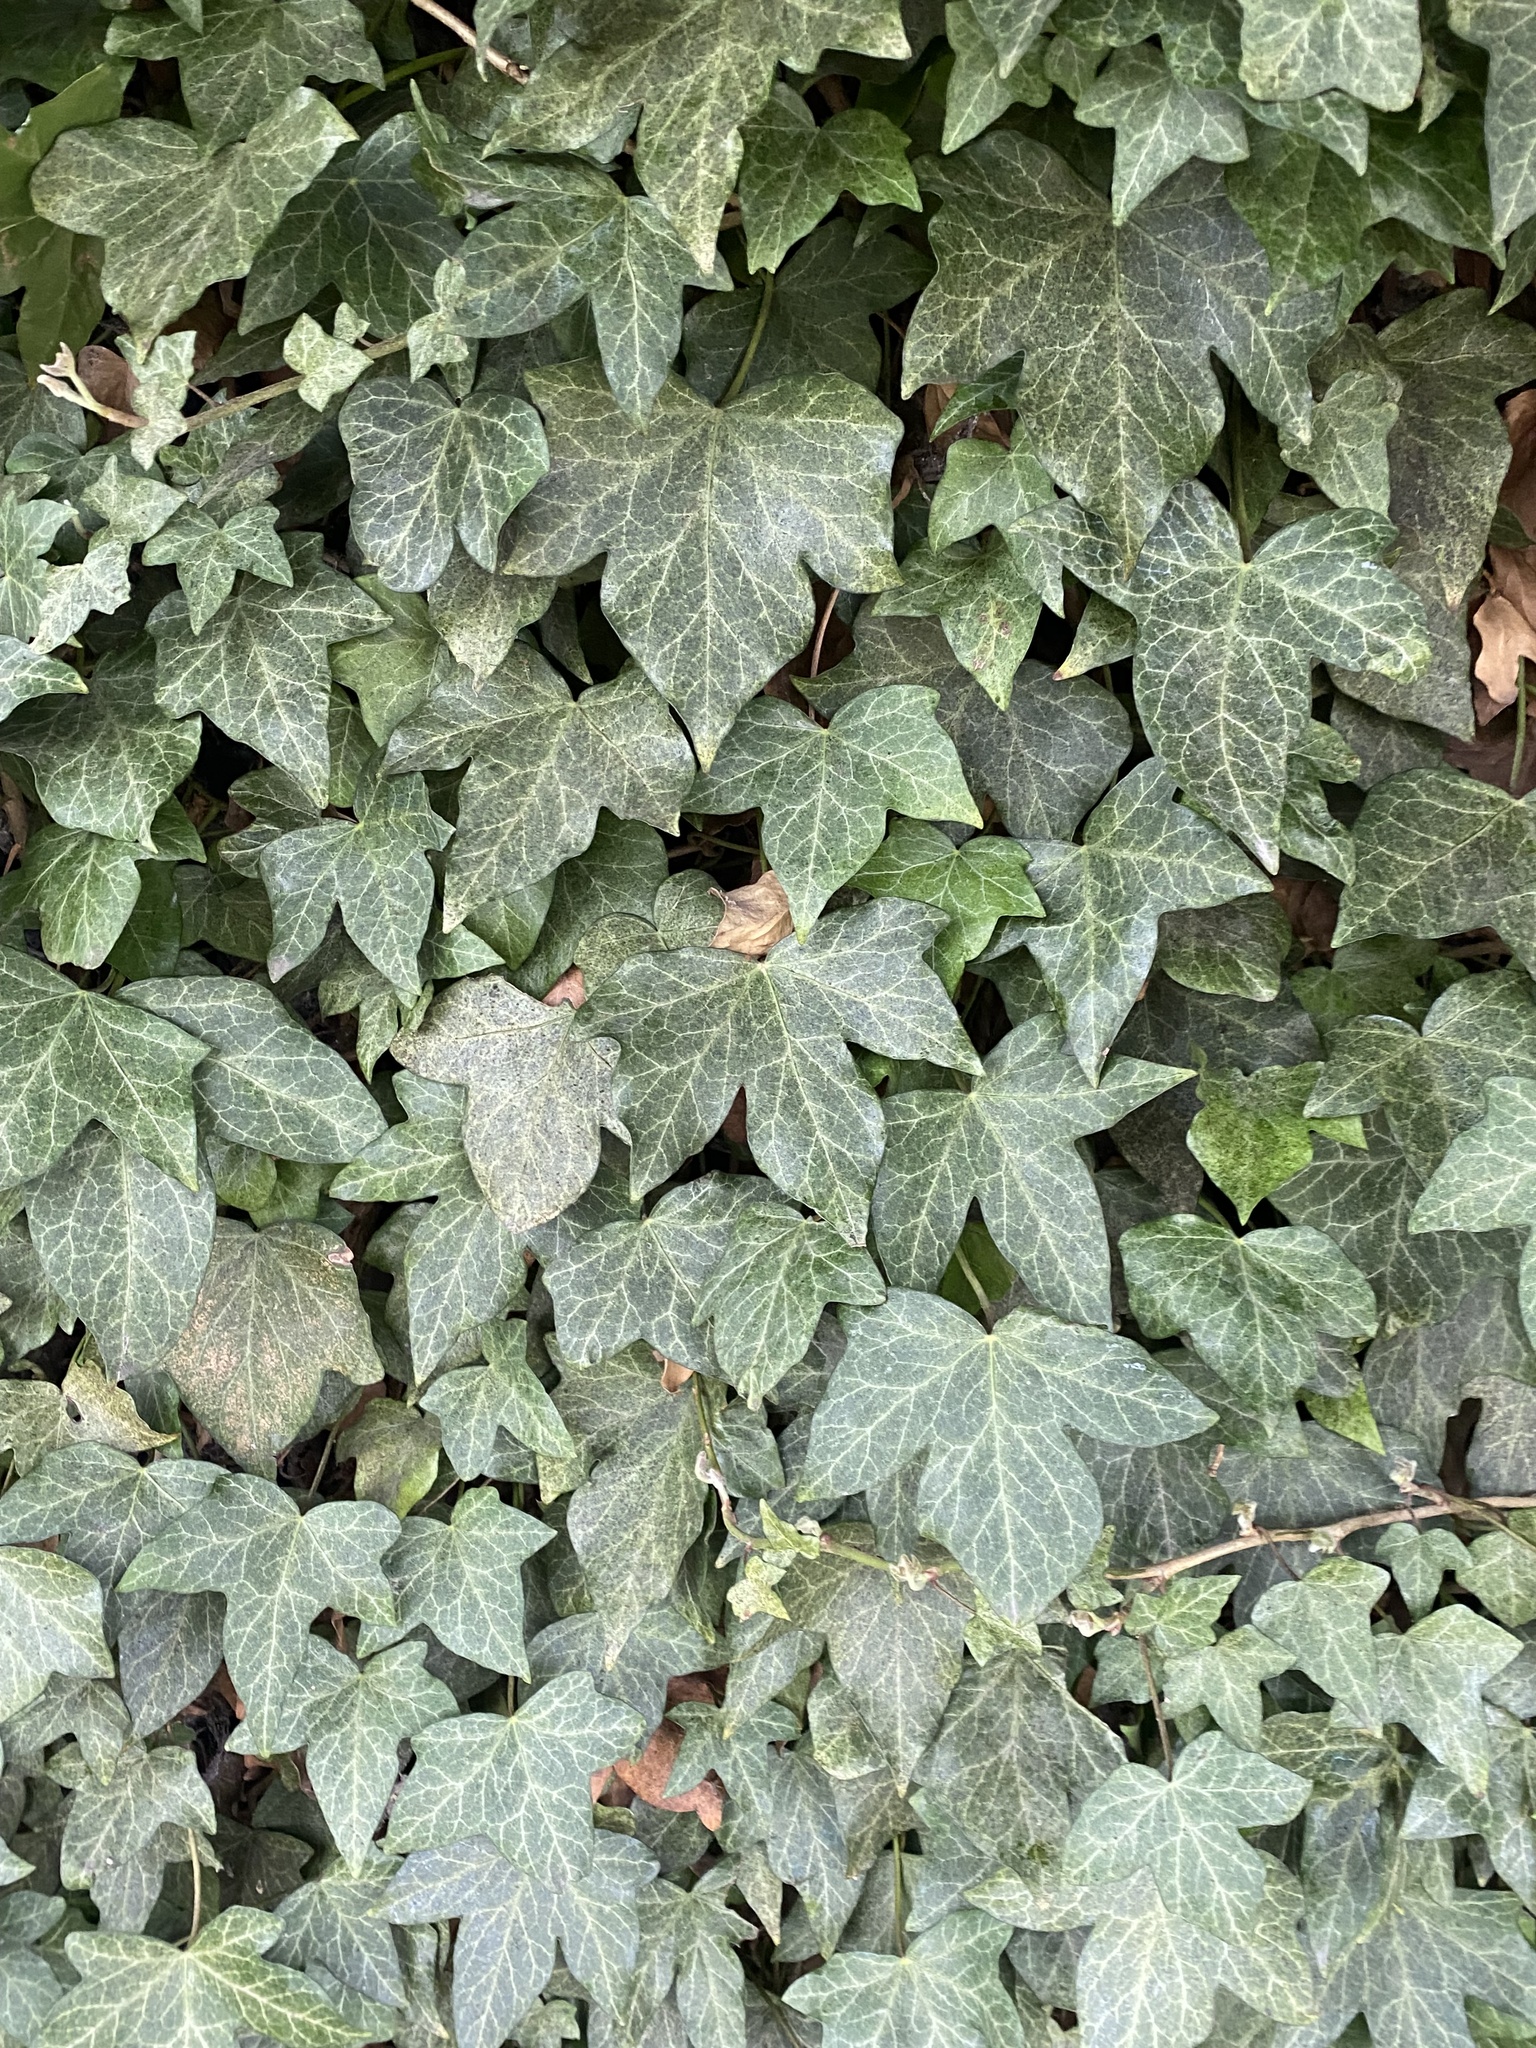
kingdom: Plantae
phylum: Tracheophyta
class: Magnoliopsida
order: Apiales
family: Araliaceae
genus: Hedera
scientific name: Hedera helix
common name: Ivy
